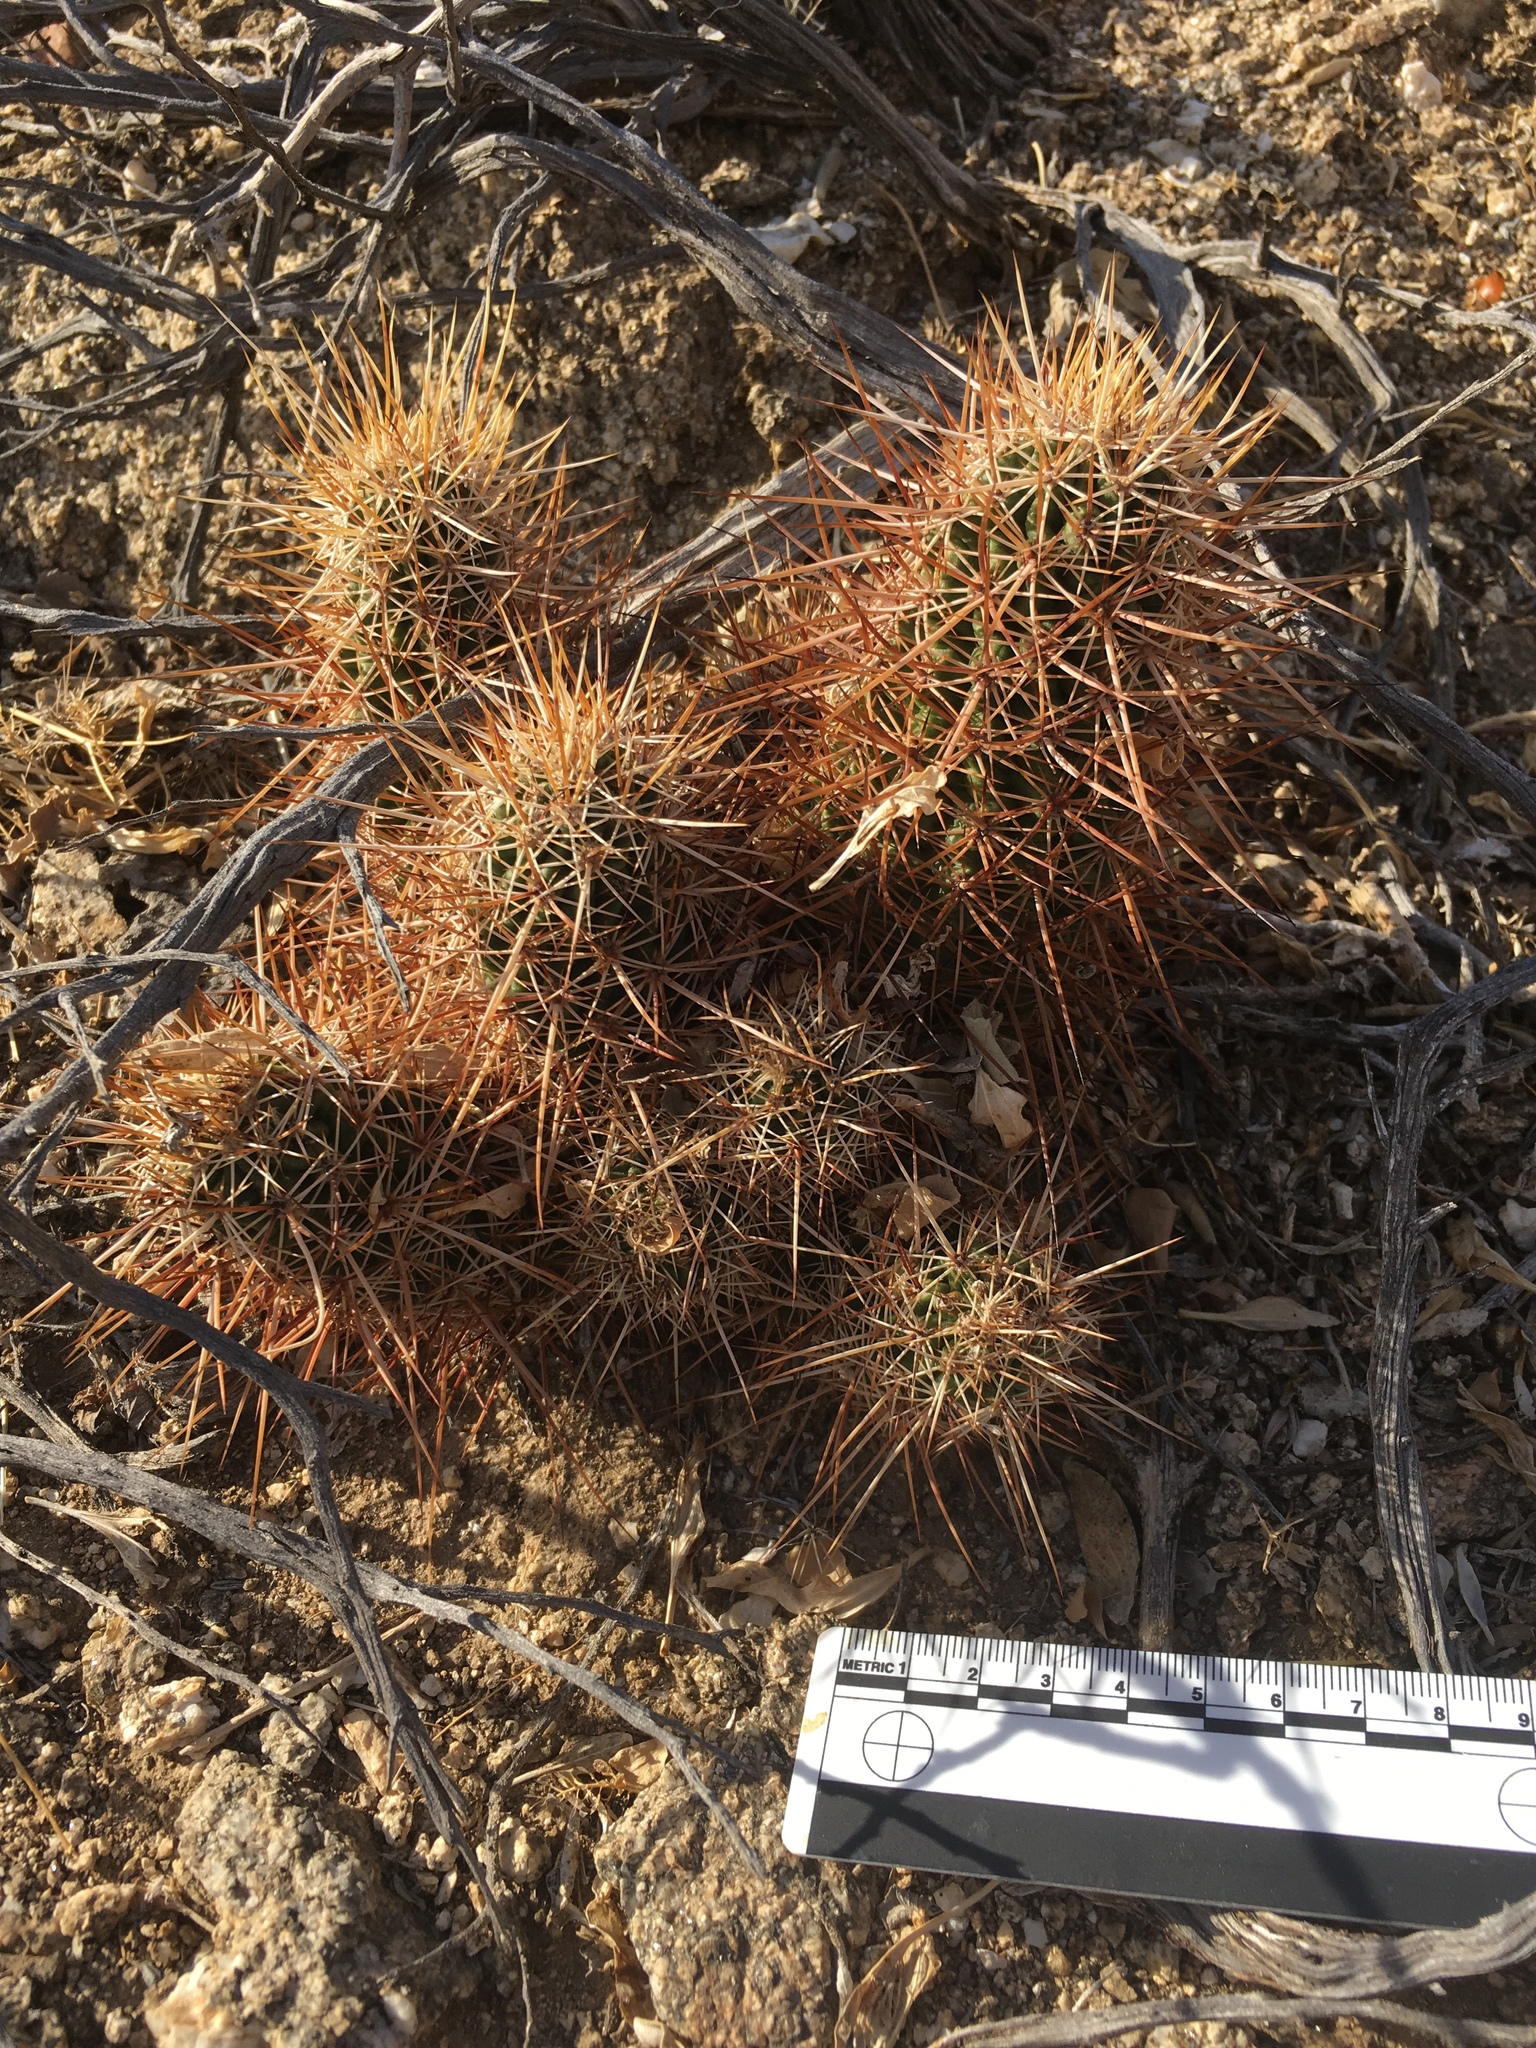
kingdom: Plantae
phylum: Tracheophyta
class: Magnoliopsida
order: Caryophyllales
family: Cactaceae
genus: Echinocereus
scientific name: Echinocereus engelmannii
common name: Engelmann's hedgehog cactus
